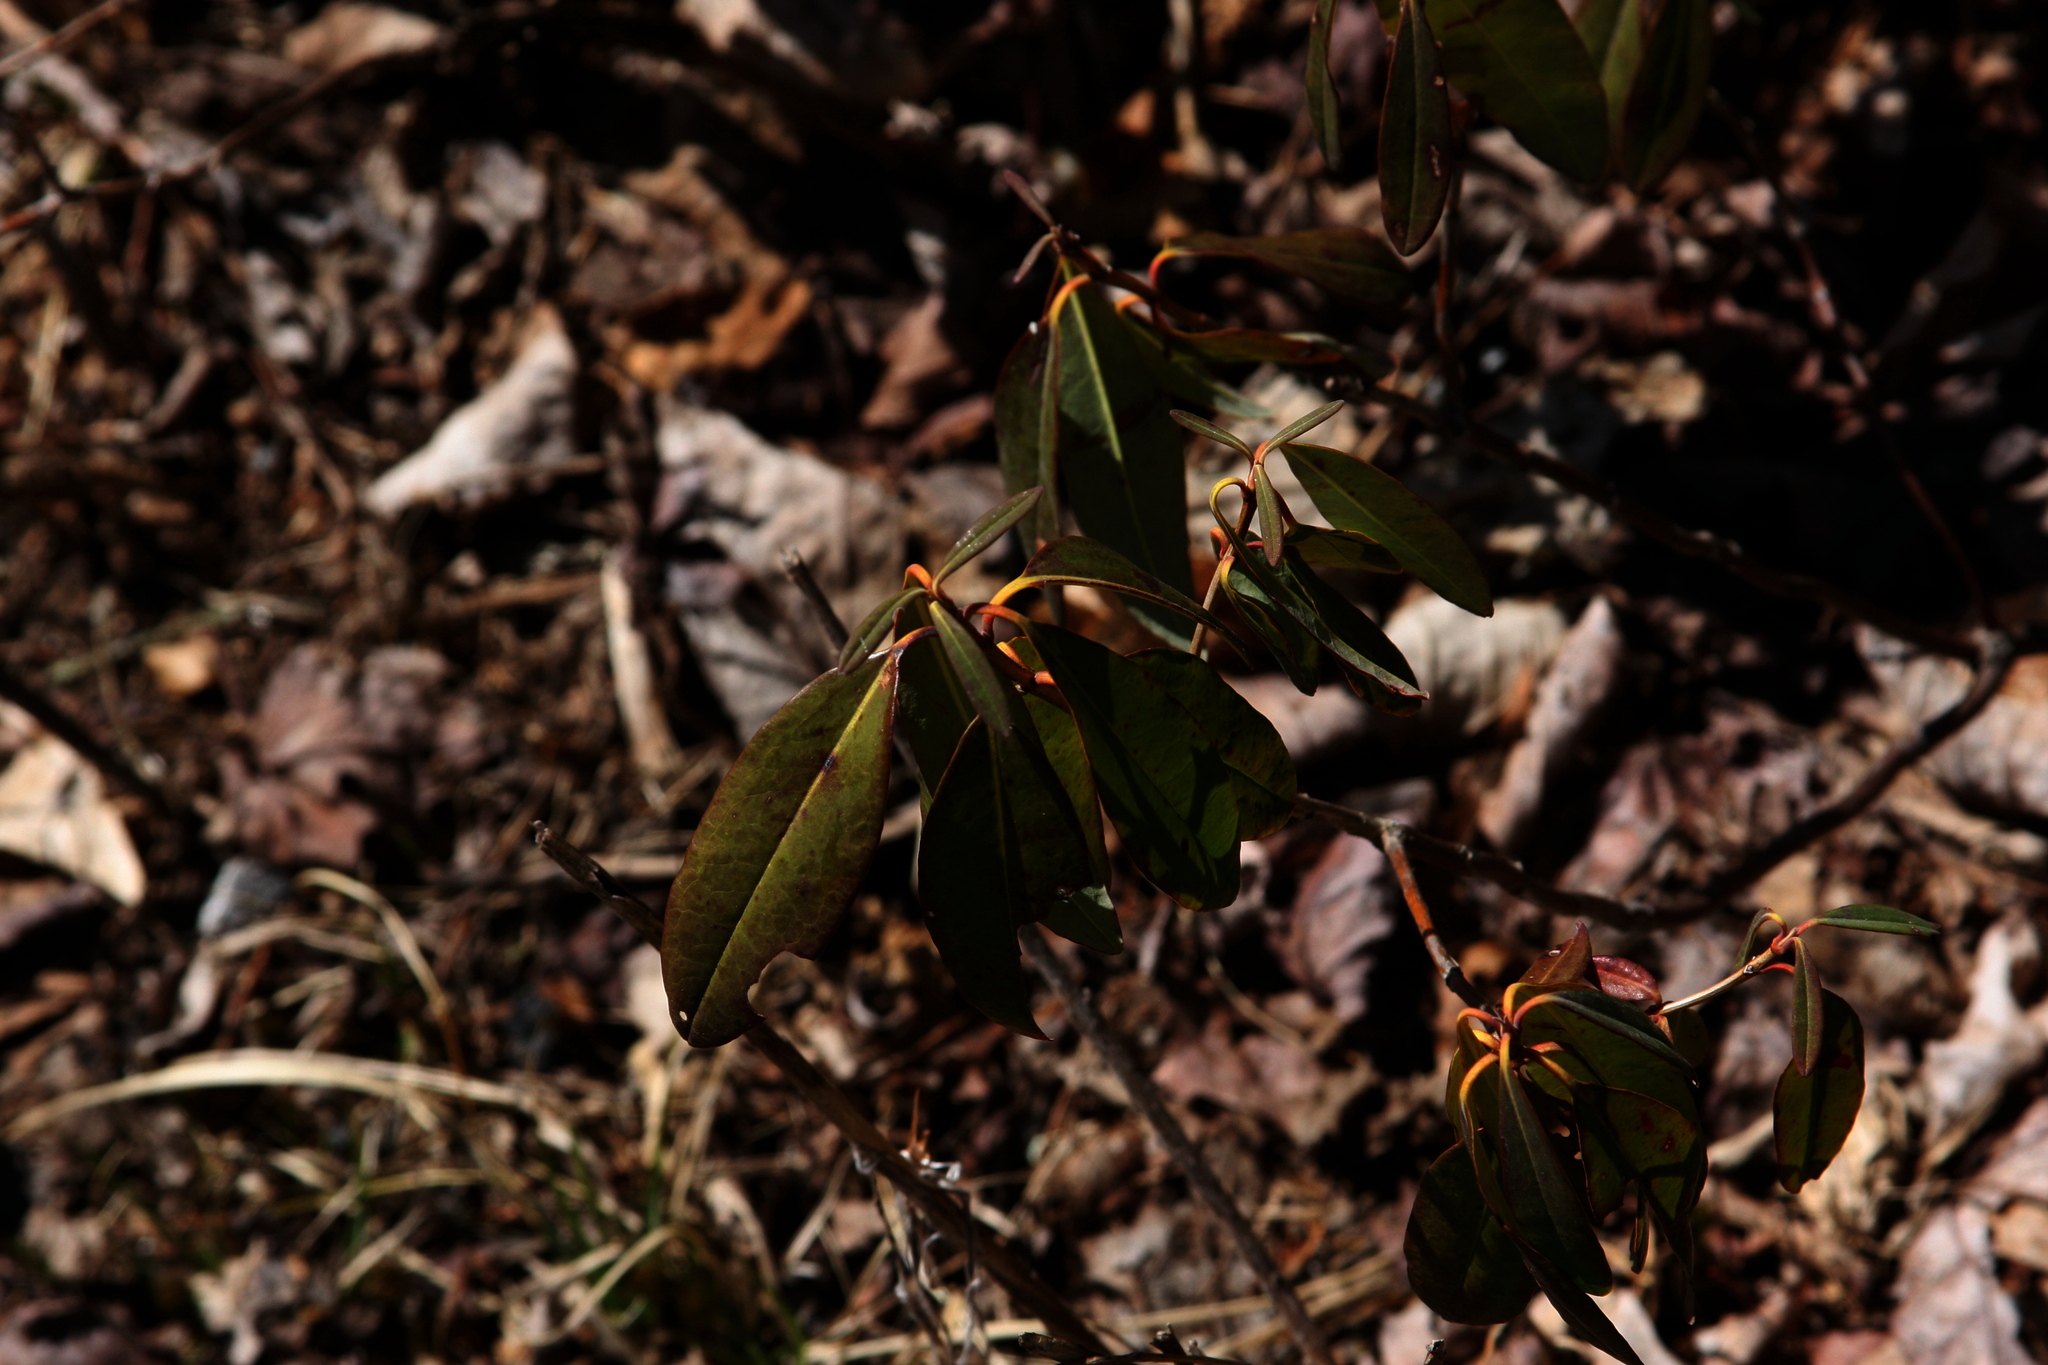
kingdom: Plantae
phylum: Tracheophyta
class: Magnoliopsida
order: Ericales
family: Ericaceae
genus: Kalmia
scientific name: Kalmia angustifolia
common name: Sheep-laurel
